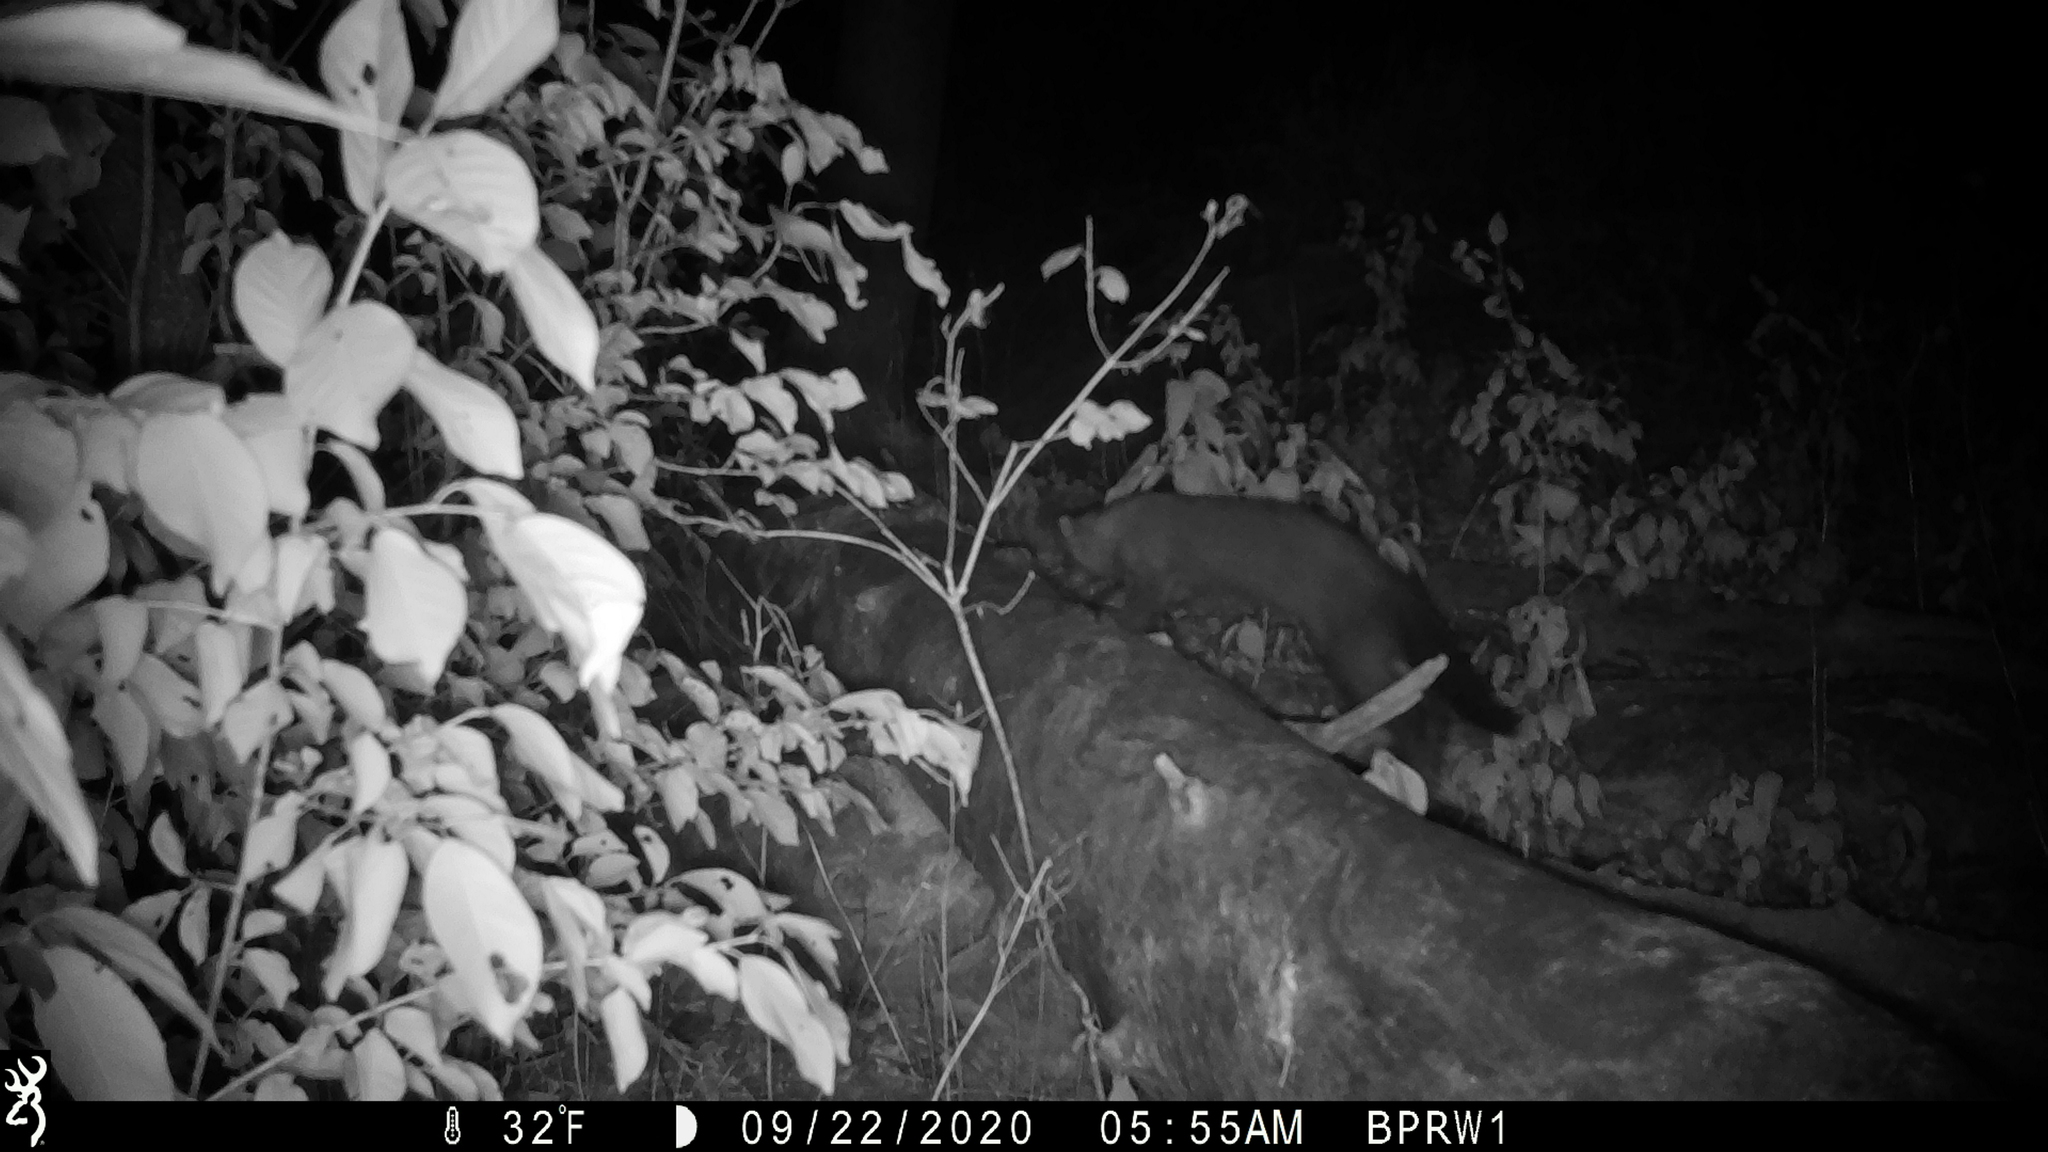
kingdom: Animalia
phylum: Chordata
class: Mammalia
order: Carnivora
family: Mustelidae
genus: Pekania
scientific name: Pekania pennanti
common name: Fisher
